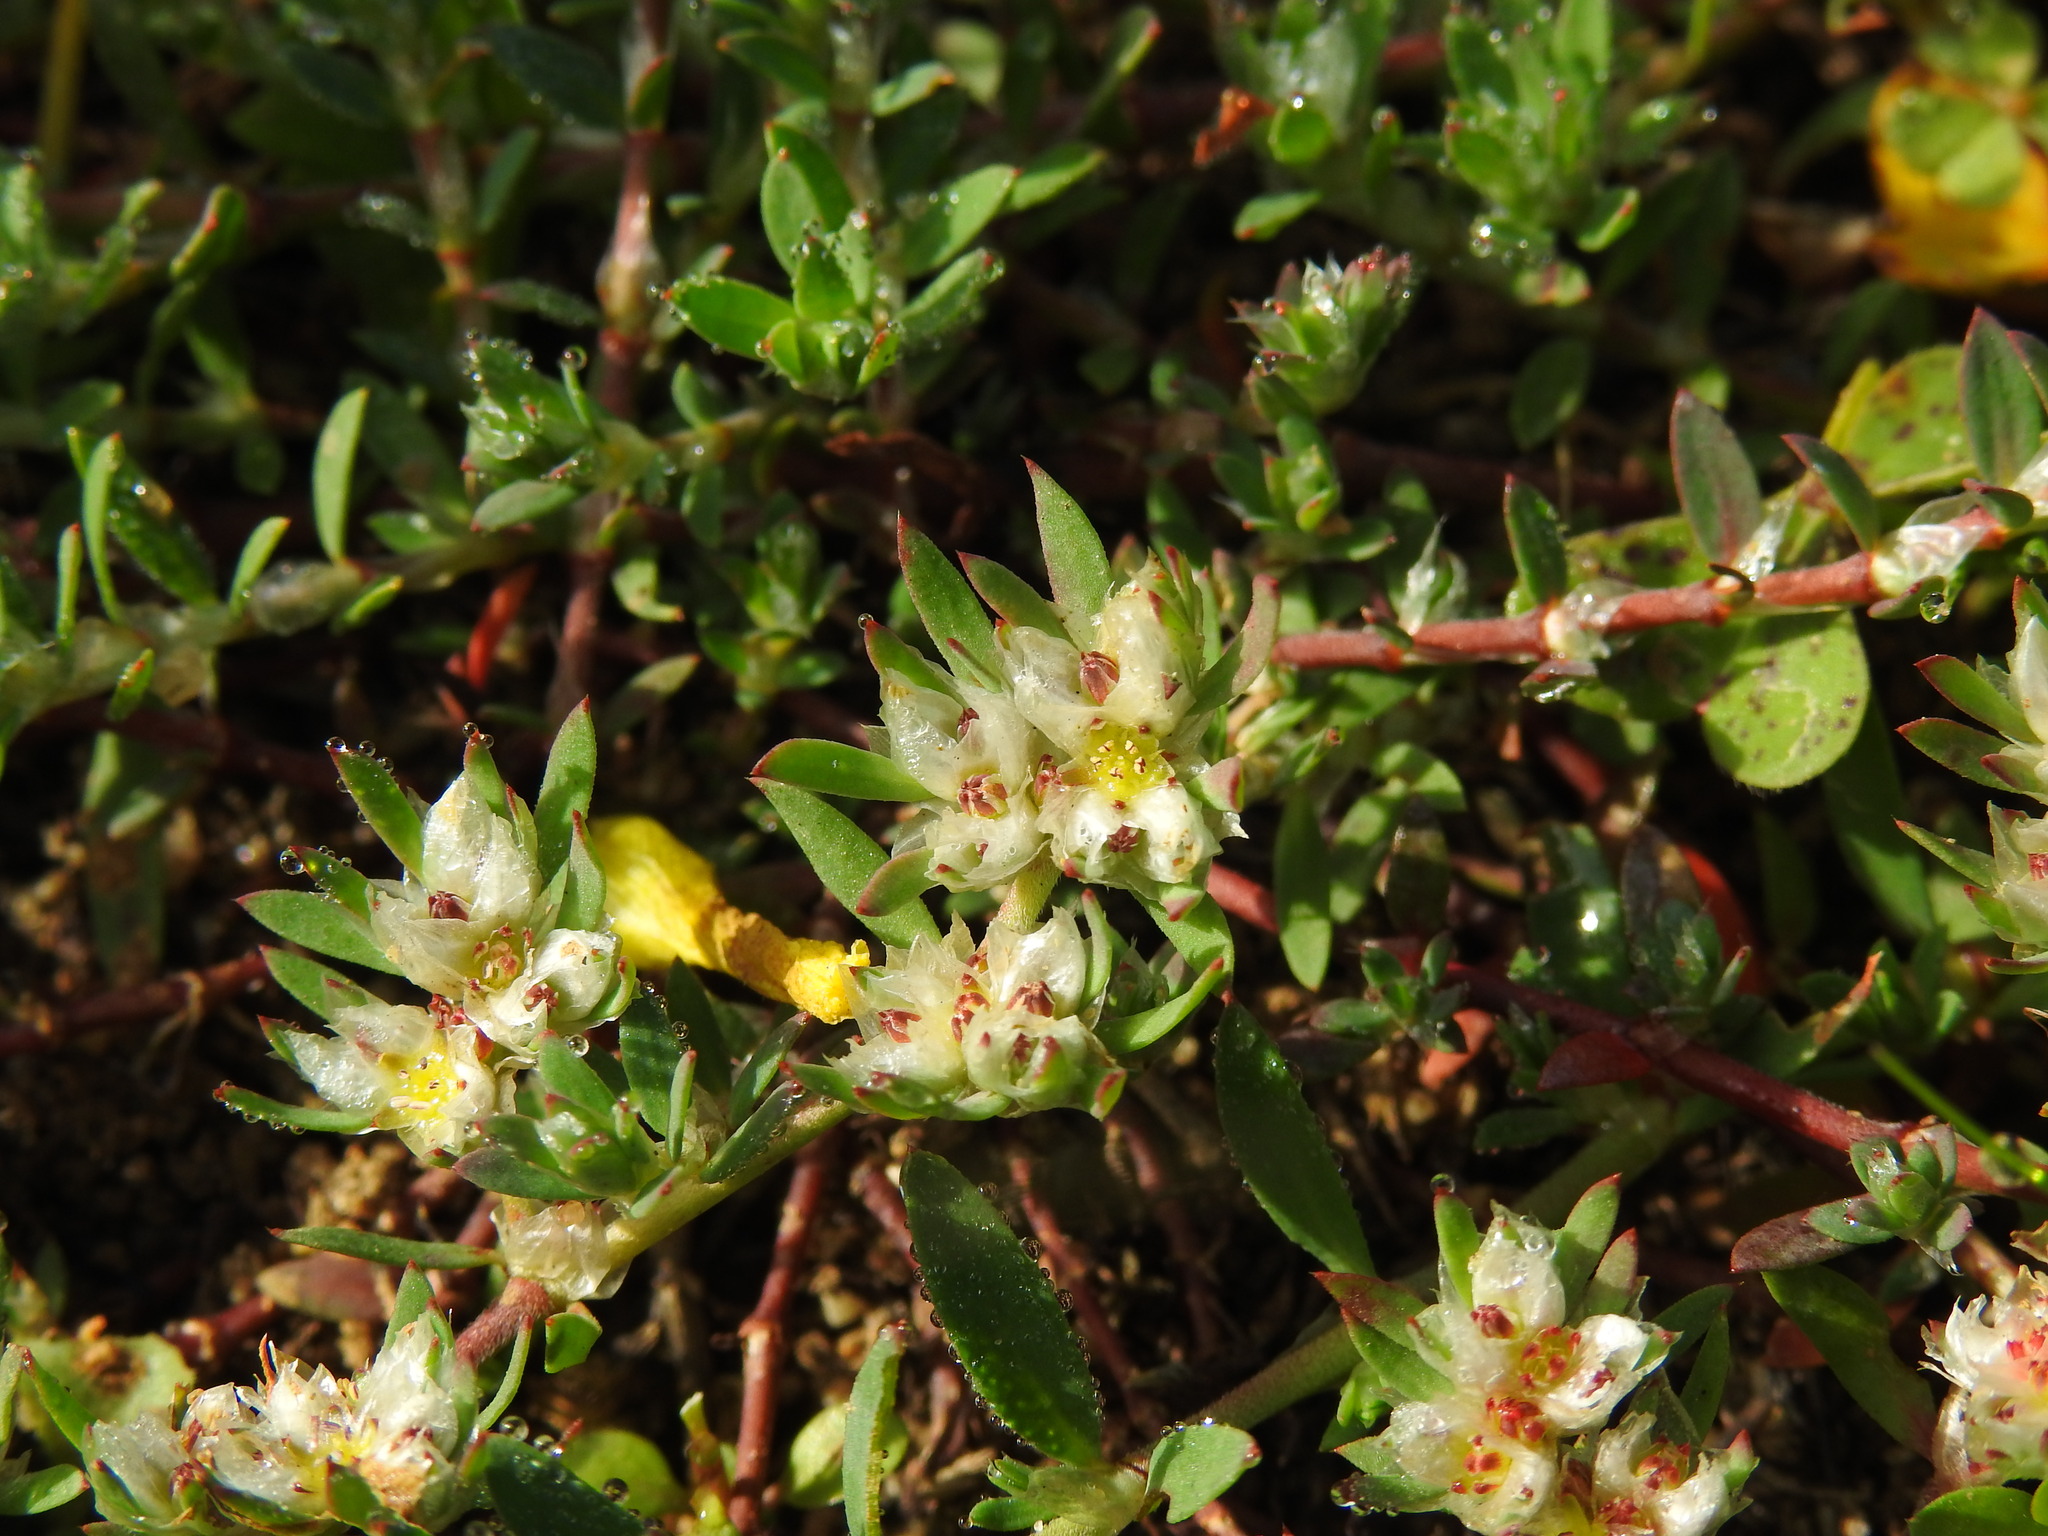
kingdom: Plantae
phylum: Tracheophyta
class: Magnoliopsida
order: Caryophyllales
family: Caryophyllaceae
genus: Paronychia
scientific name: Paronychia argentea
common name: Silver nailroot
